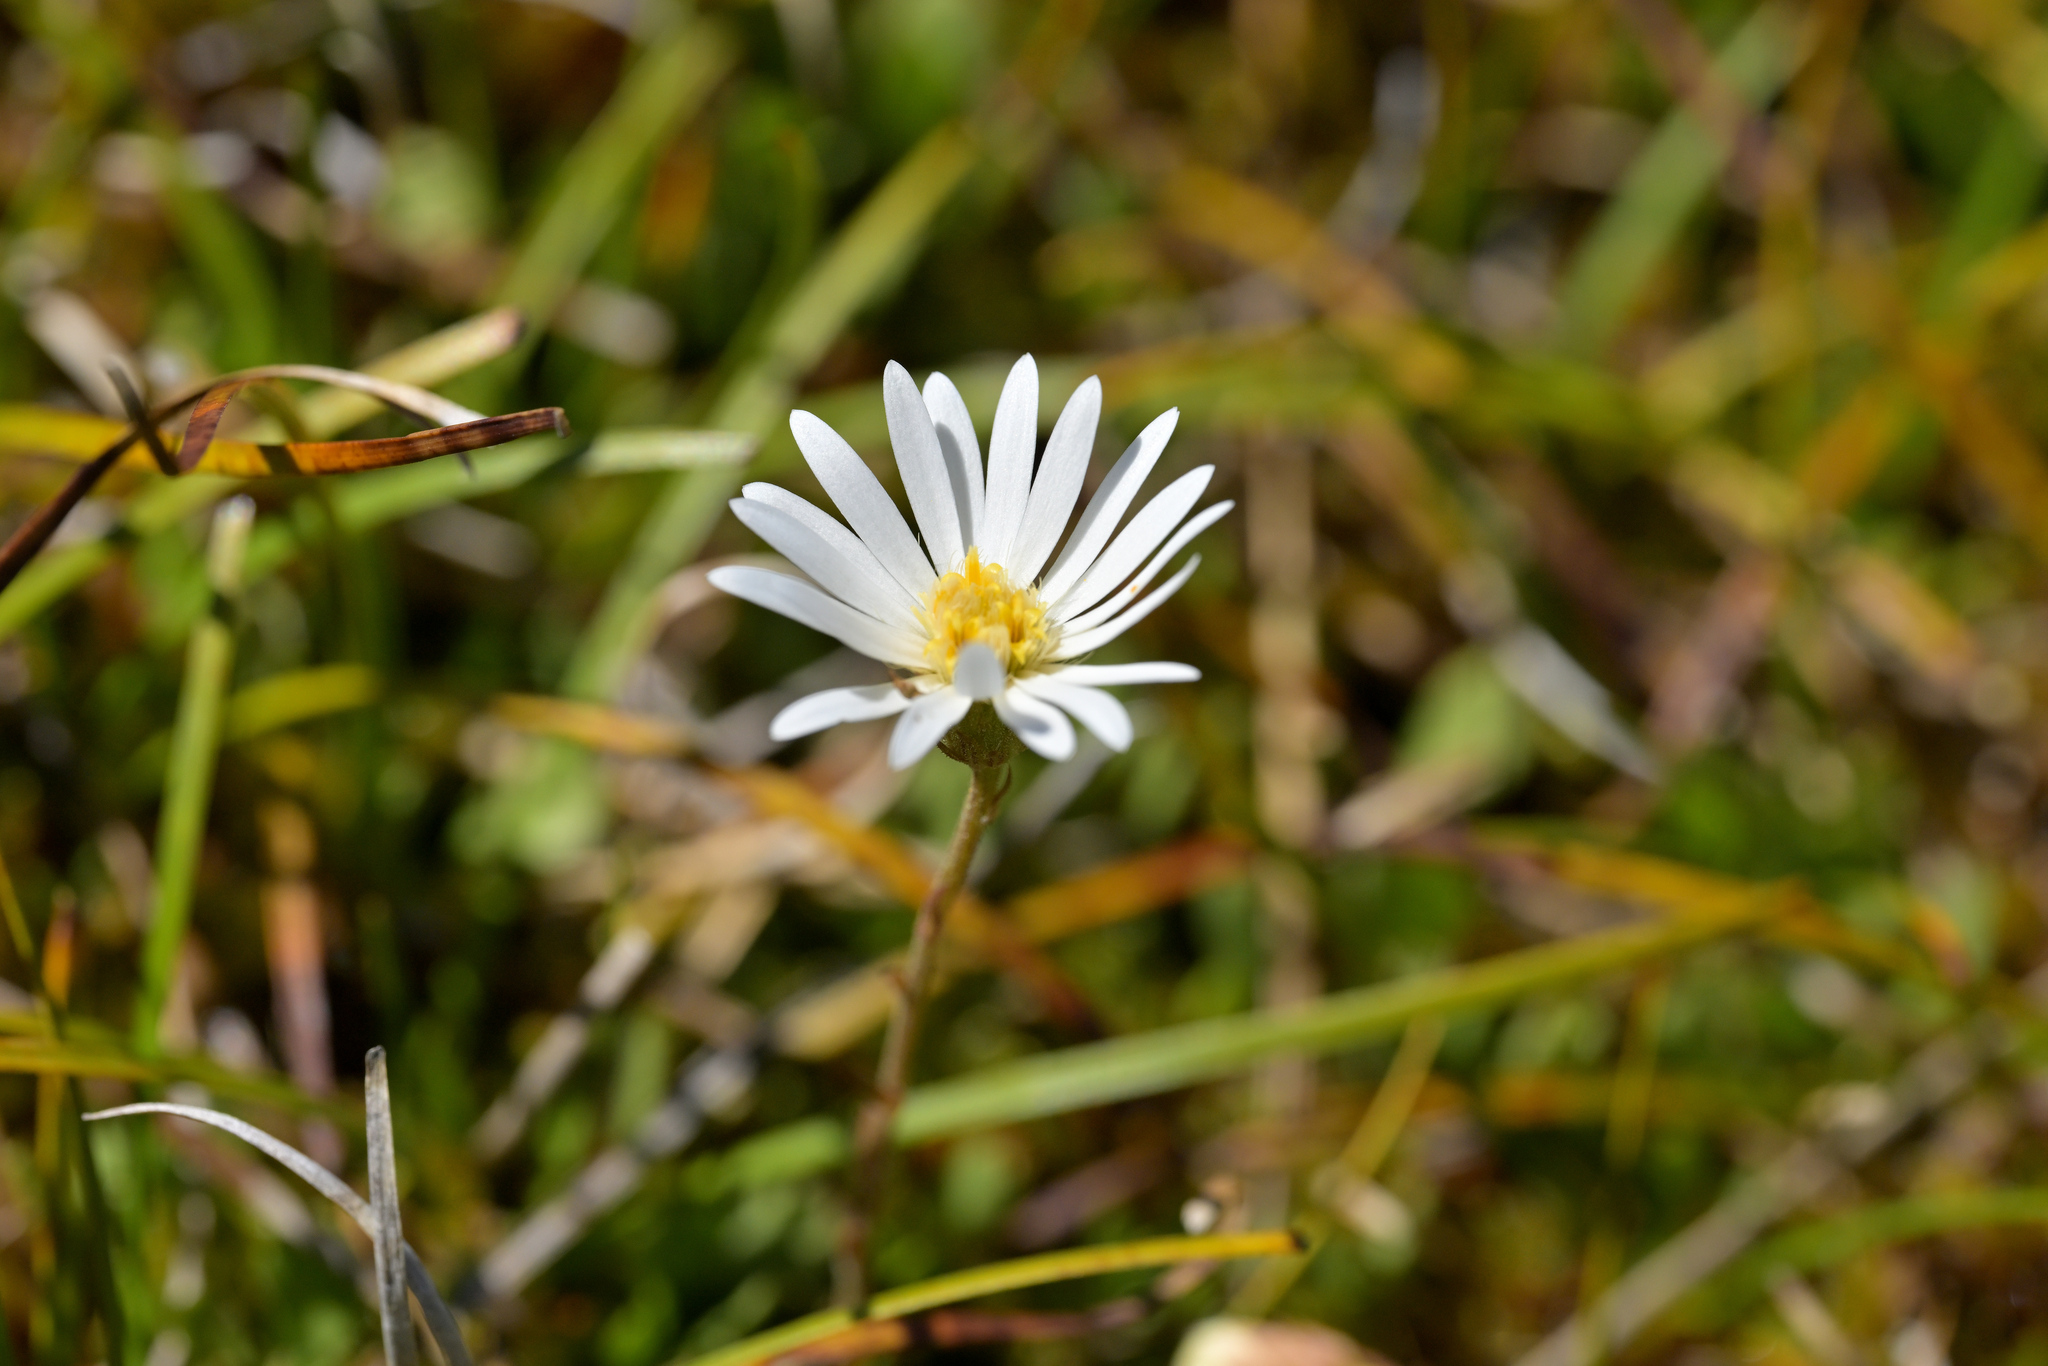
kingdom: Plantae
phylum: Tracheophyta
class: Magnoliopsida
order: Asterales
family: Asteraceae
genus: Celmisia
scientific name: Celmisia glandulosa
